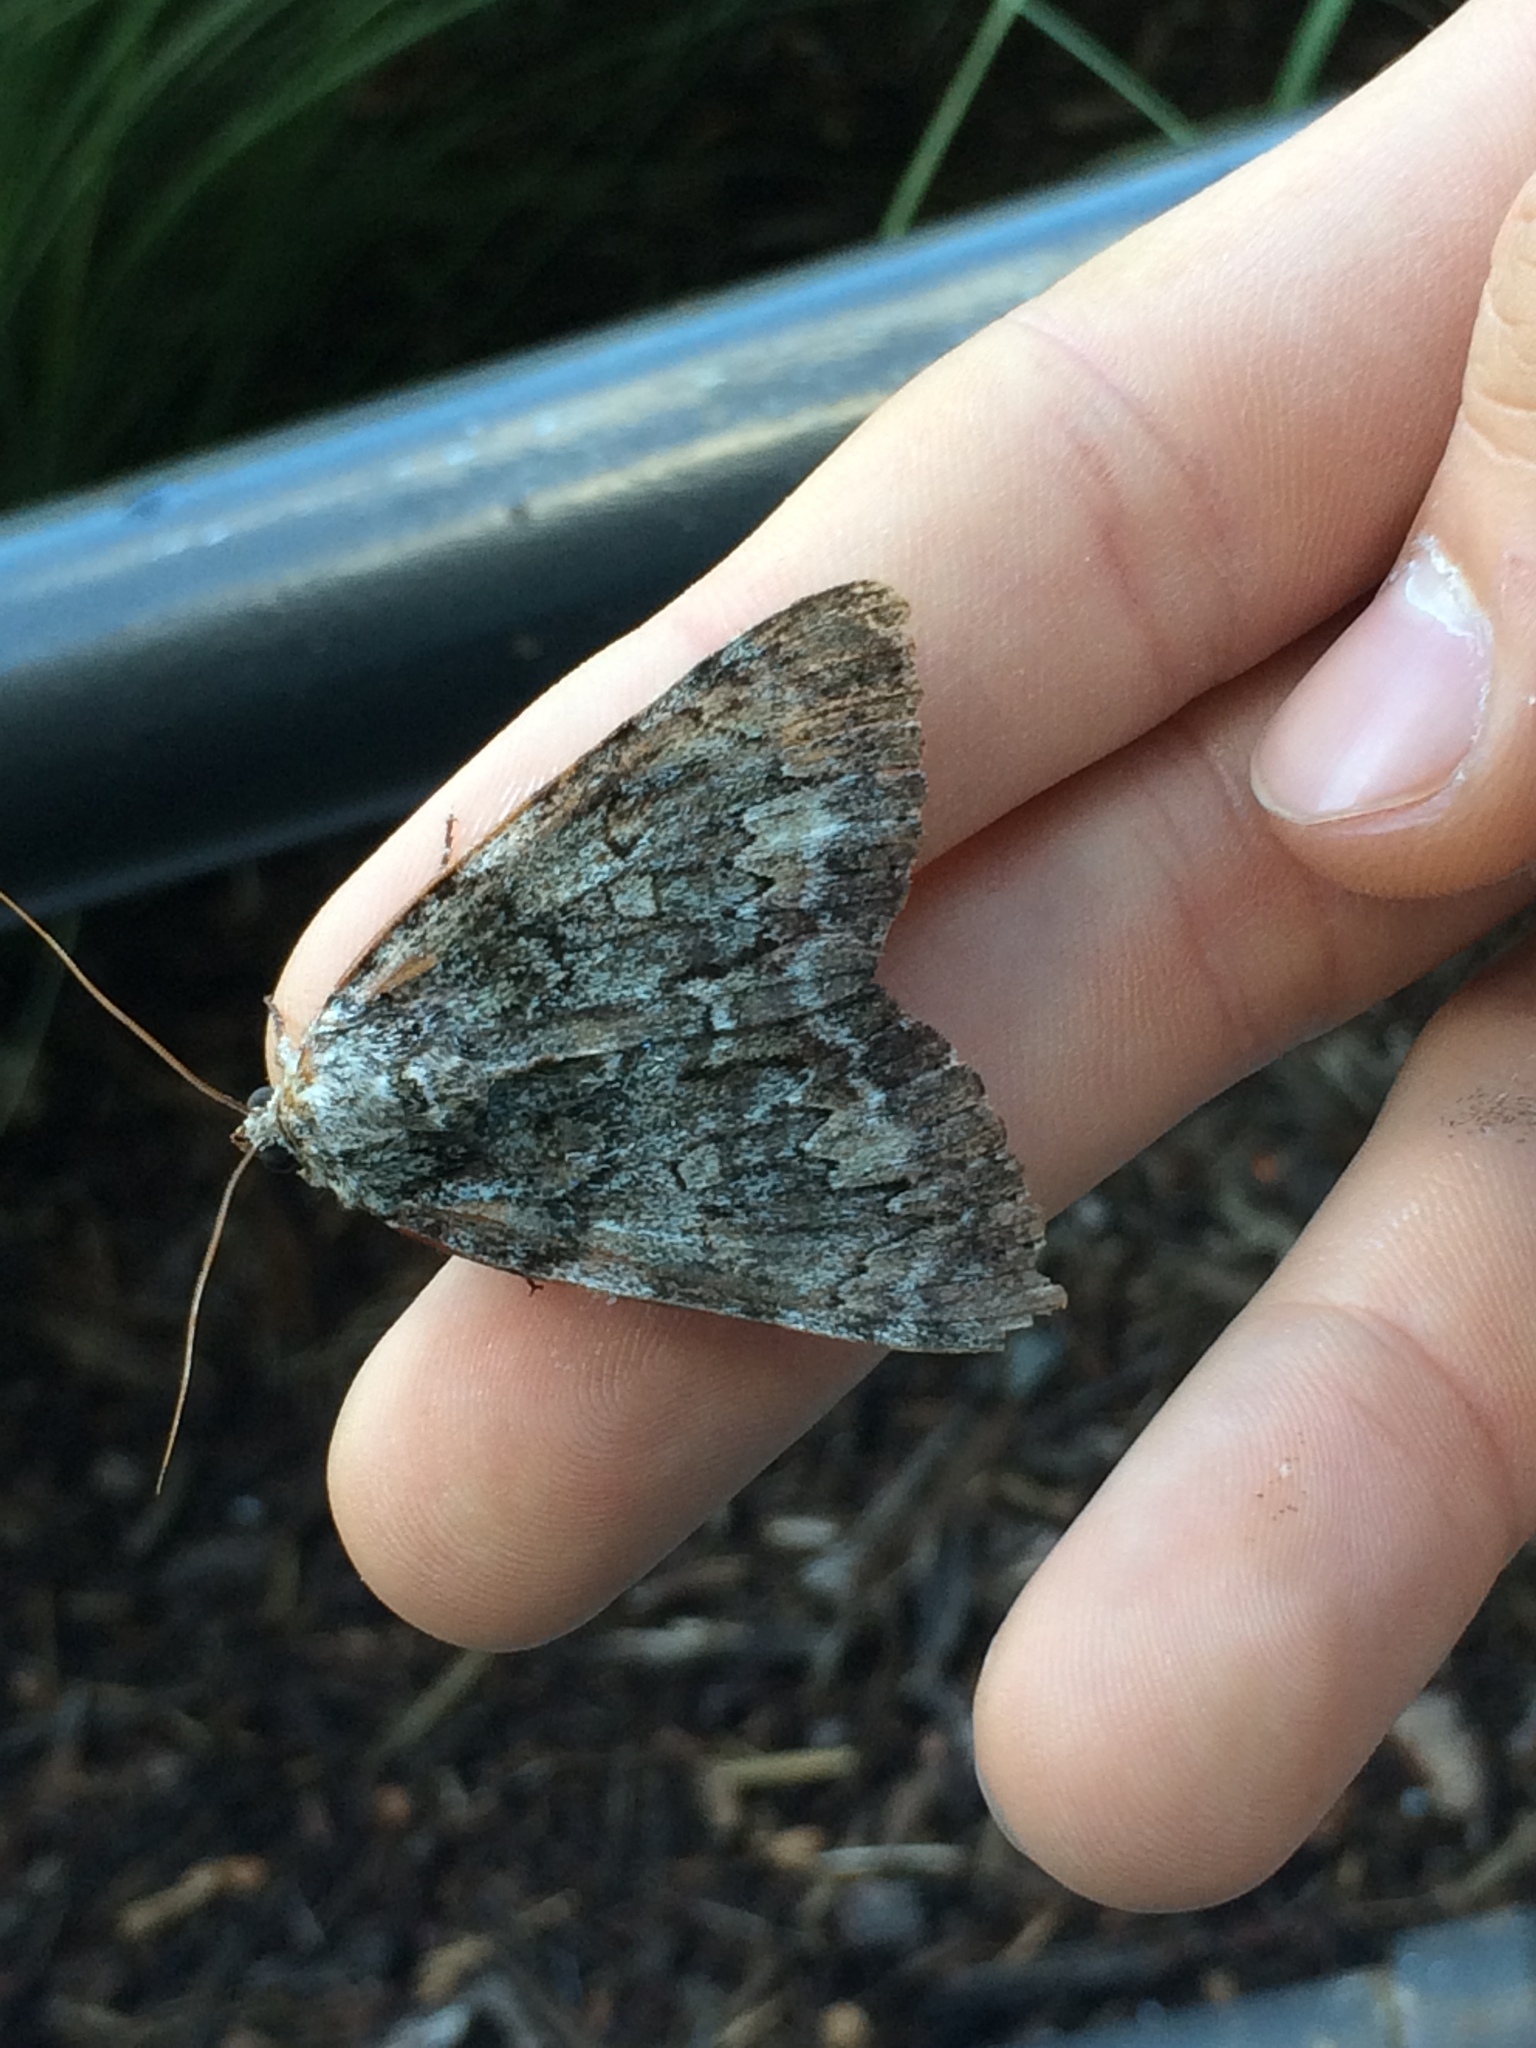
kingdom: Animalia
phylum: Arthropoda
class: Insecta
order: Lepidoptera
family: Erebidae
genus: Catocala
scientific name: Catocala palaeogama
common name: Oldwife underwing
